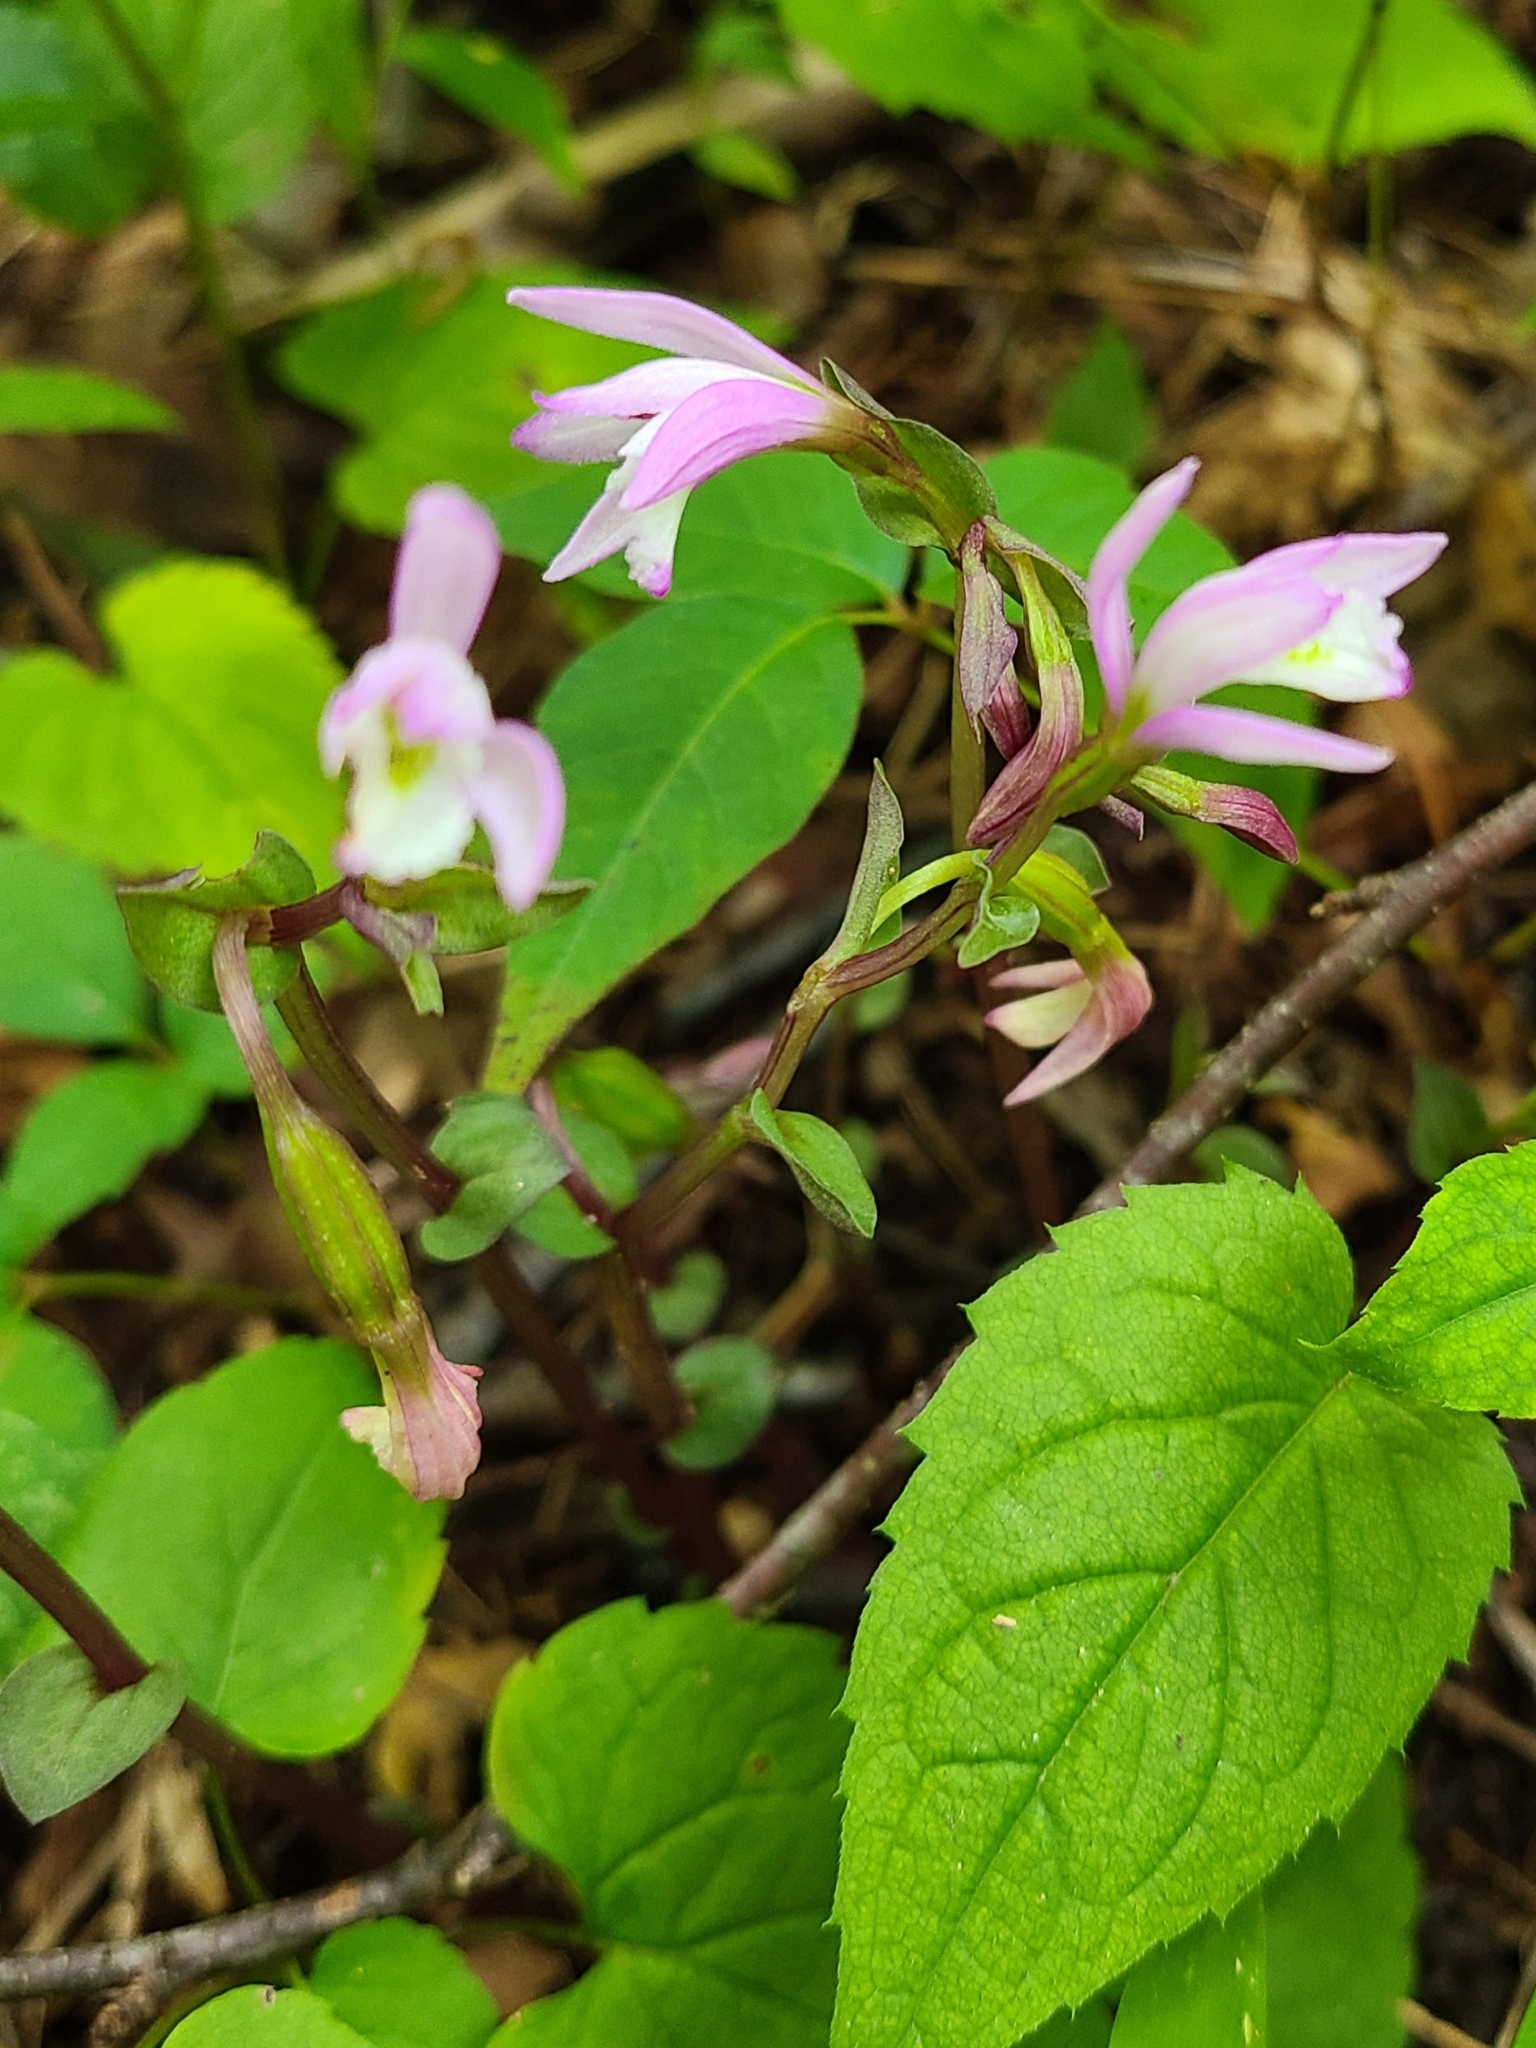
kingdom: Plantae
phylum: Tracheophyta
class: Liliopsida
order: Asparagales
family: Orchidaceae
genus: Triphora
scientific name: Triphora trianthophoros
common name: Three birds orchid
